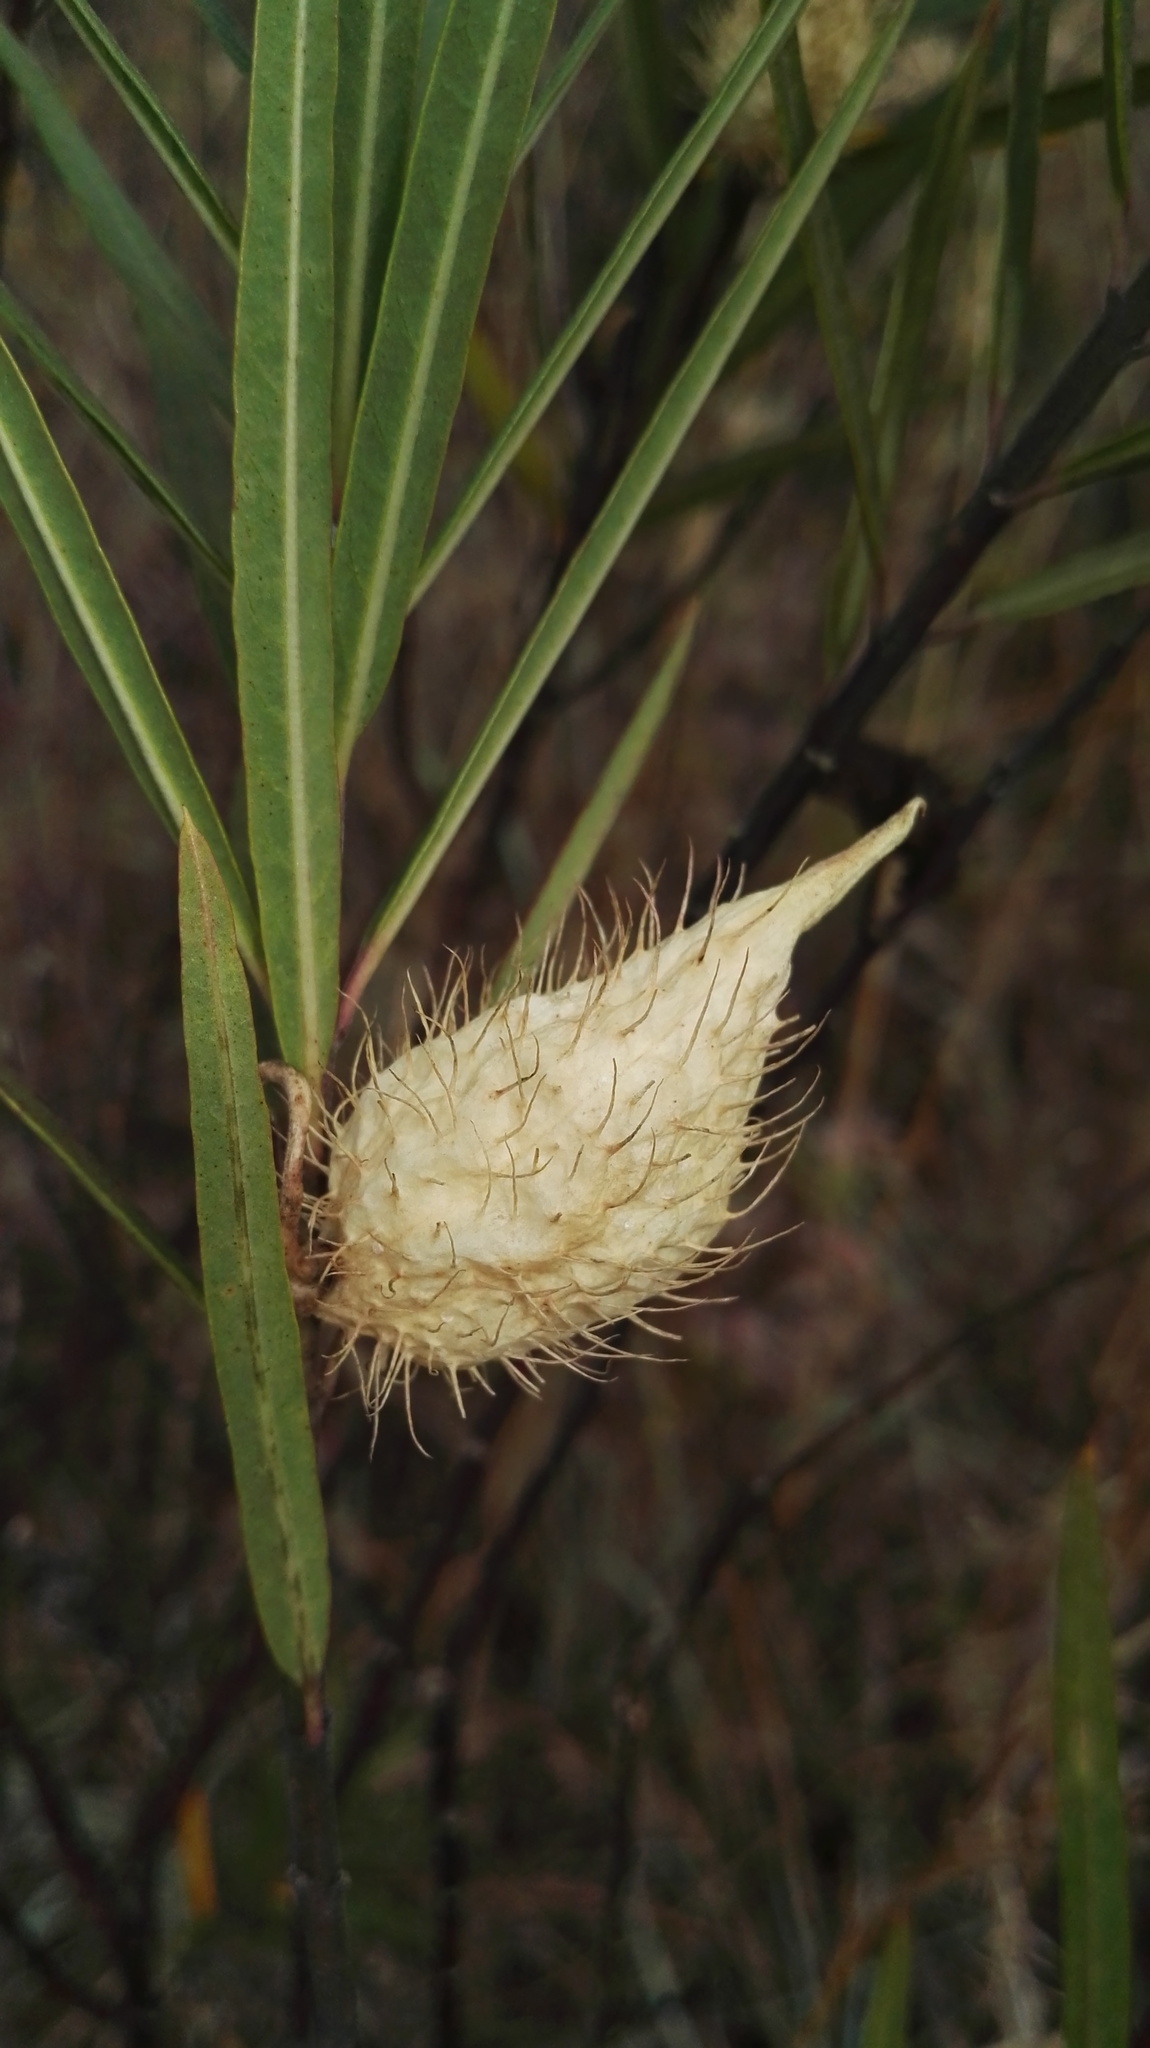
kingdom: Plantae
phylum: Tracheophyta
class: Magnoliopsida
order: Gentianales
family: Apocynaceae
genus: Gomphocarpus
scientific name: Gomphocarpus fruticosus
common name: Milkweed
